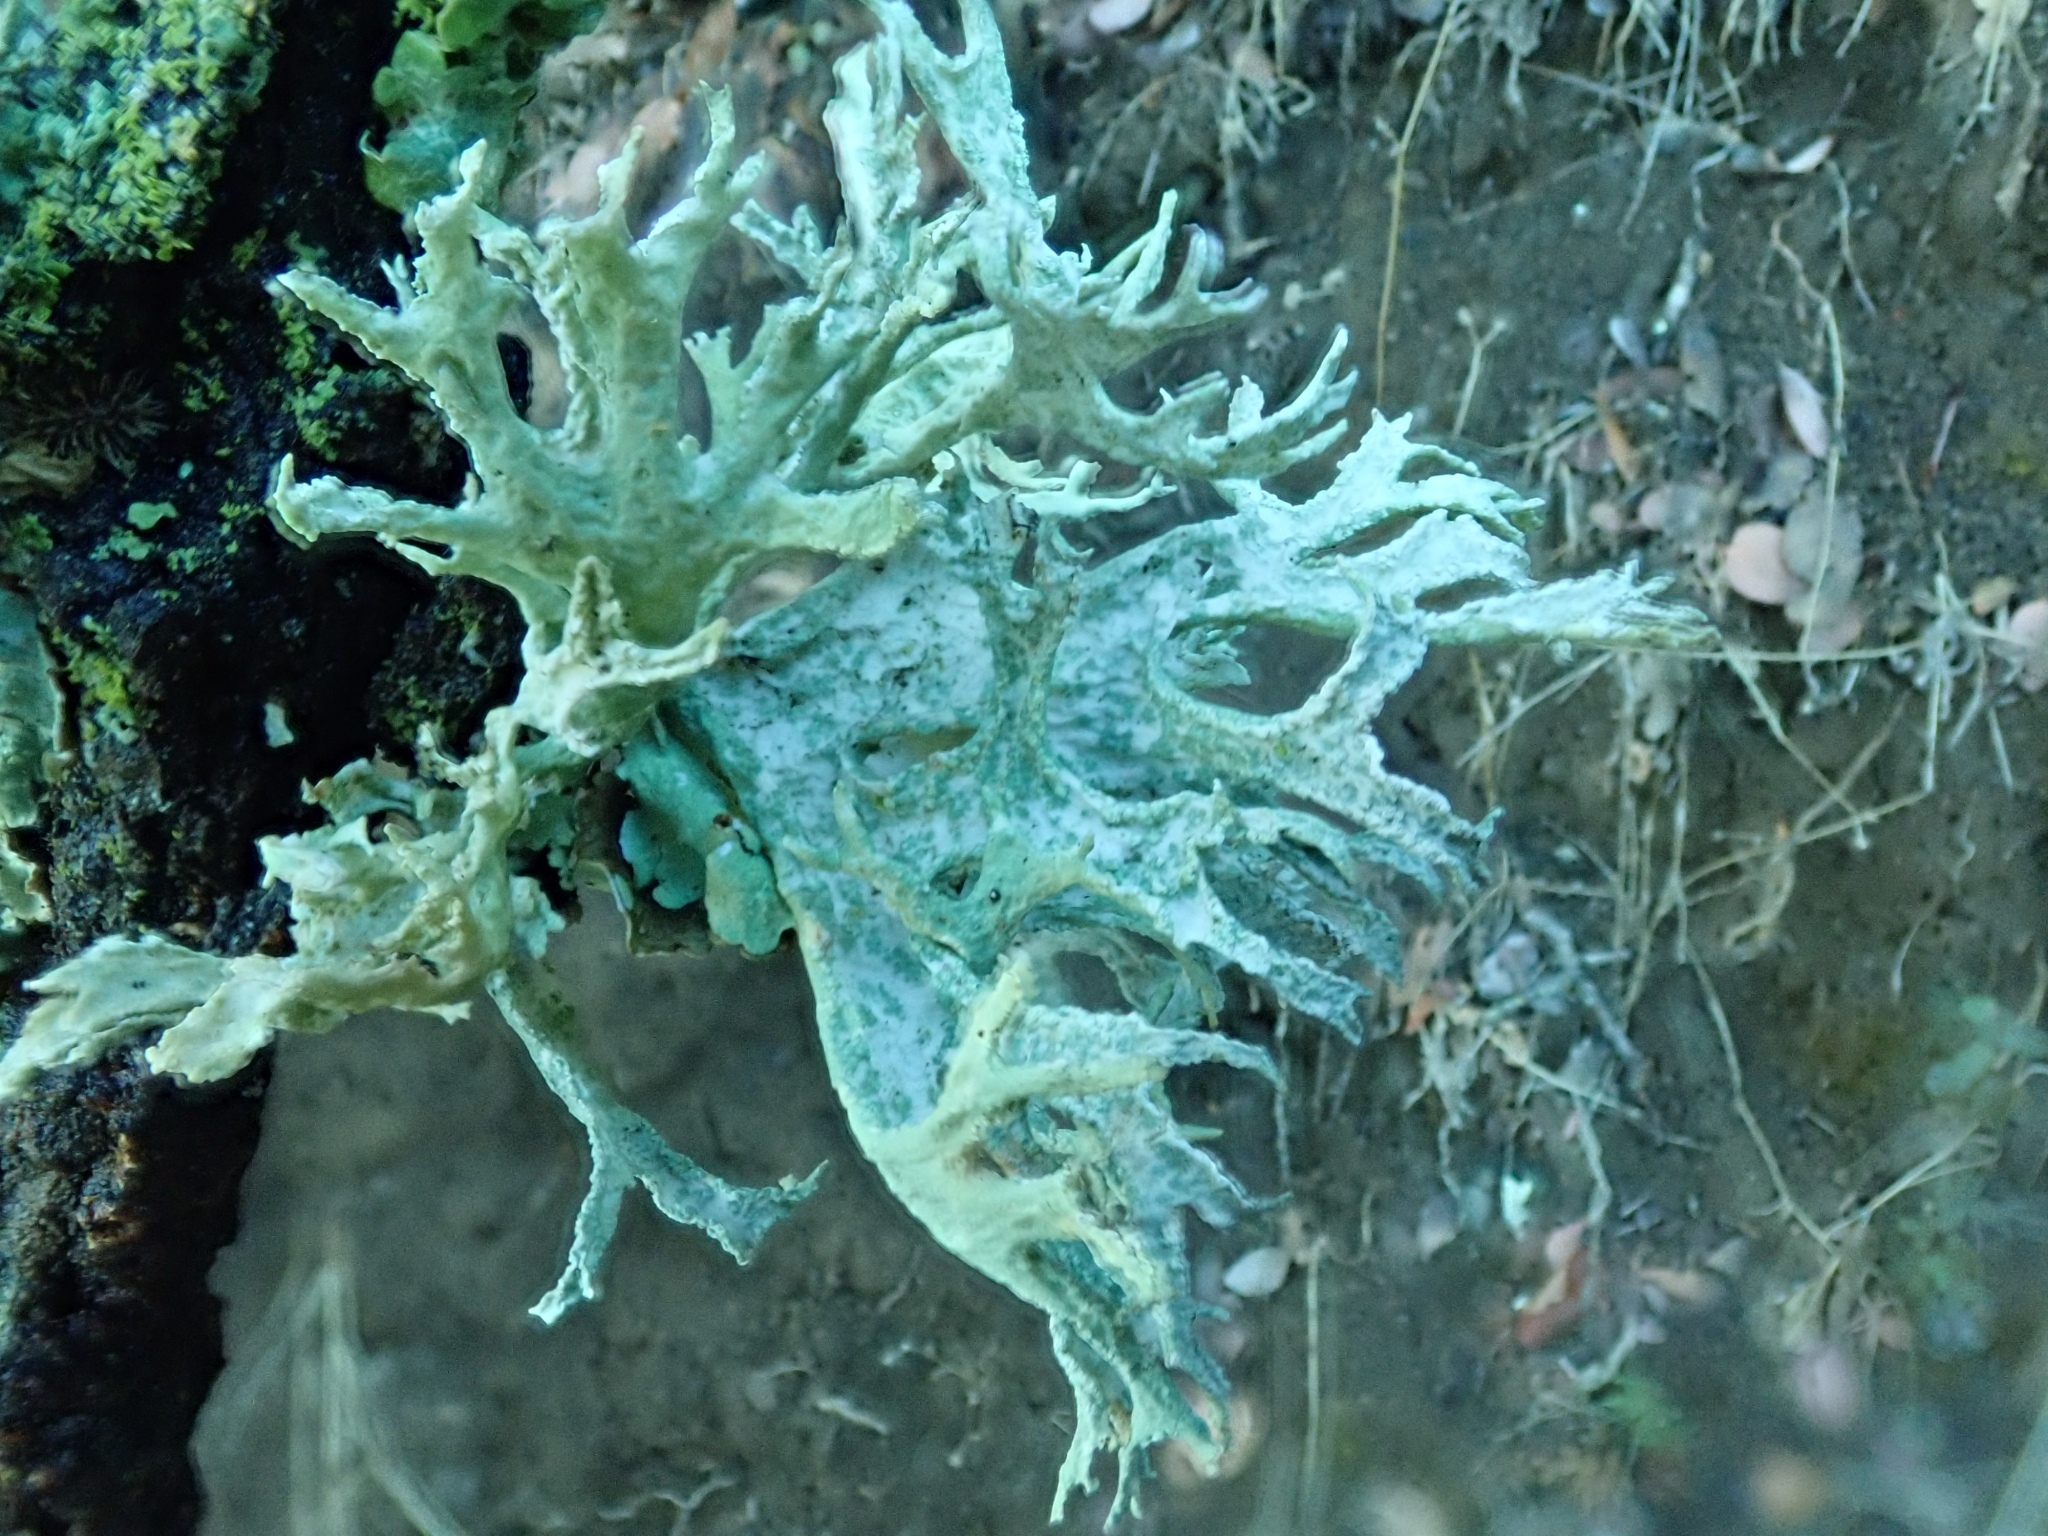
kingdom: Fungi
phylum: Ascomycota
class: Lecanoromycetes
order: Lecanorales
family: Parmeliaceae
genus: Evernia
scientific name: Evernia prunastri
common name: Oak moss
